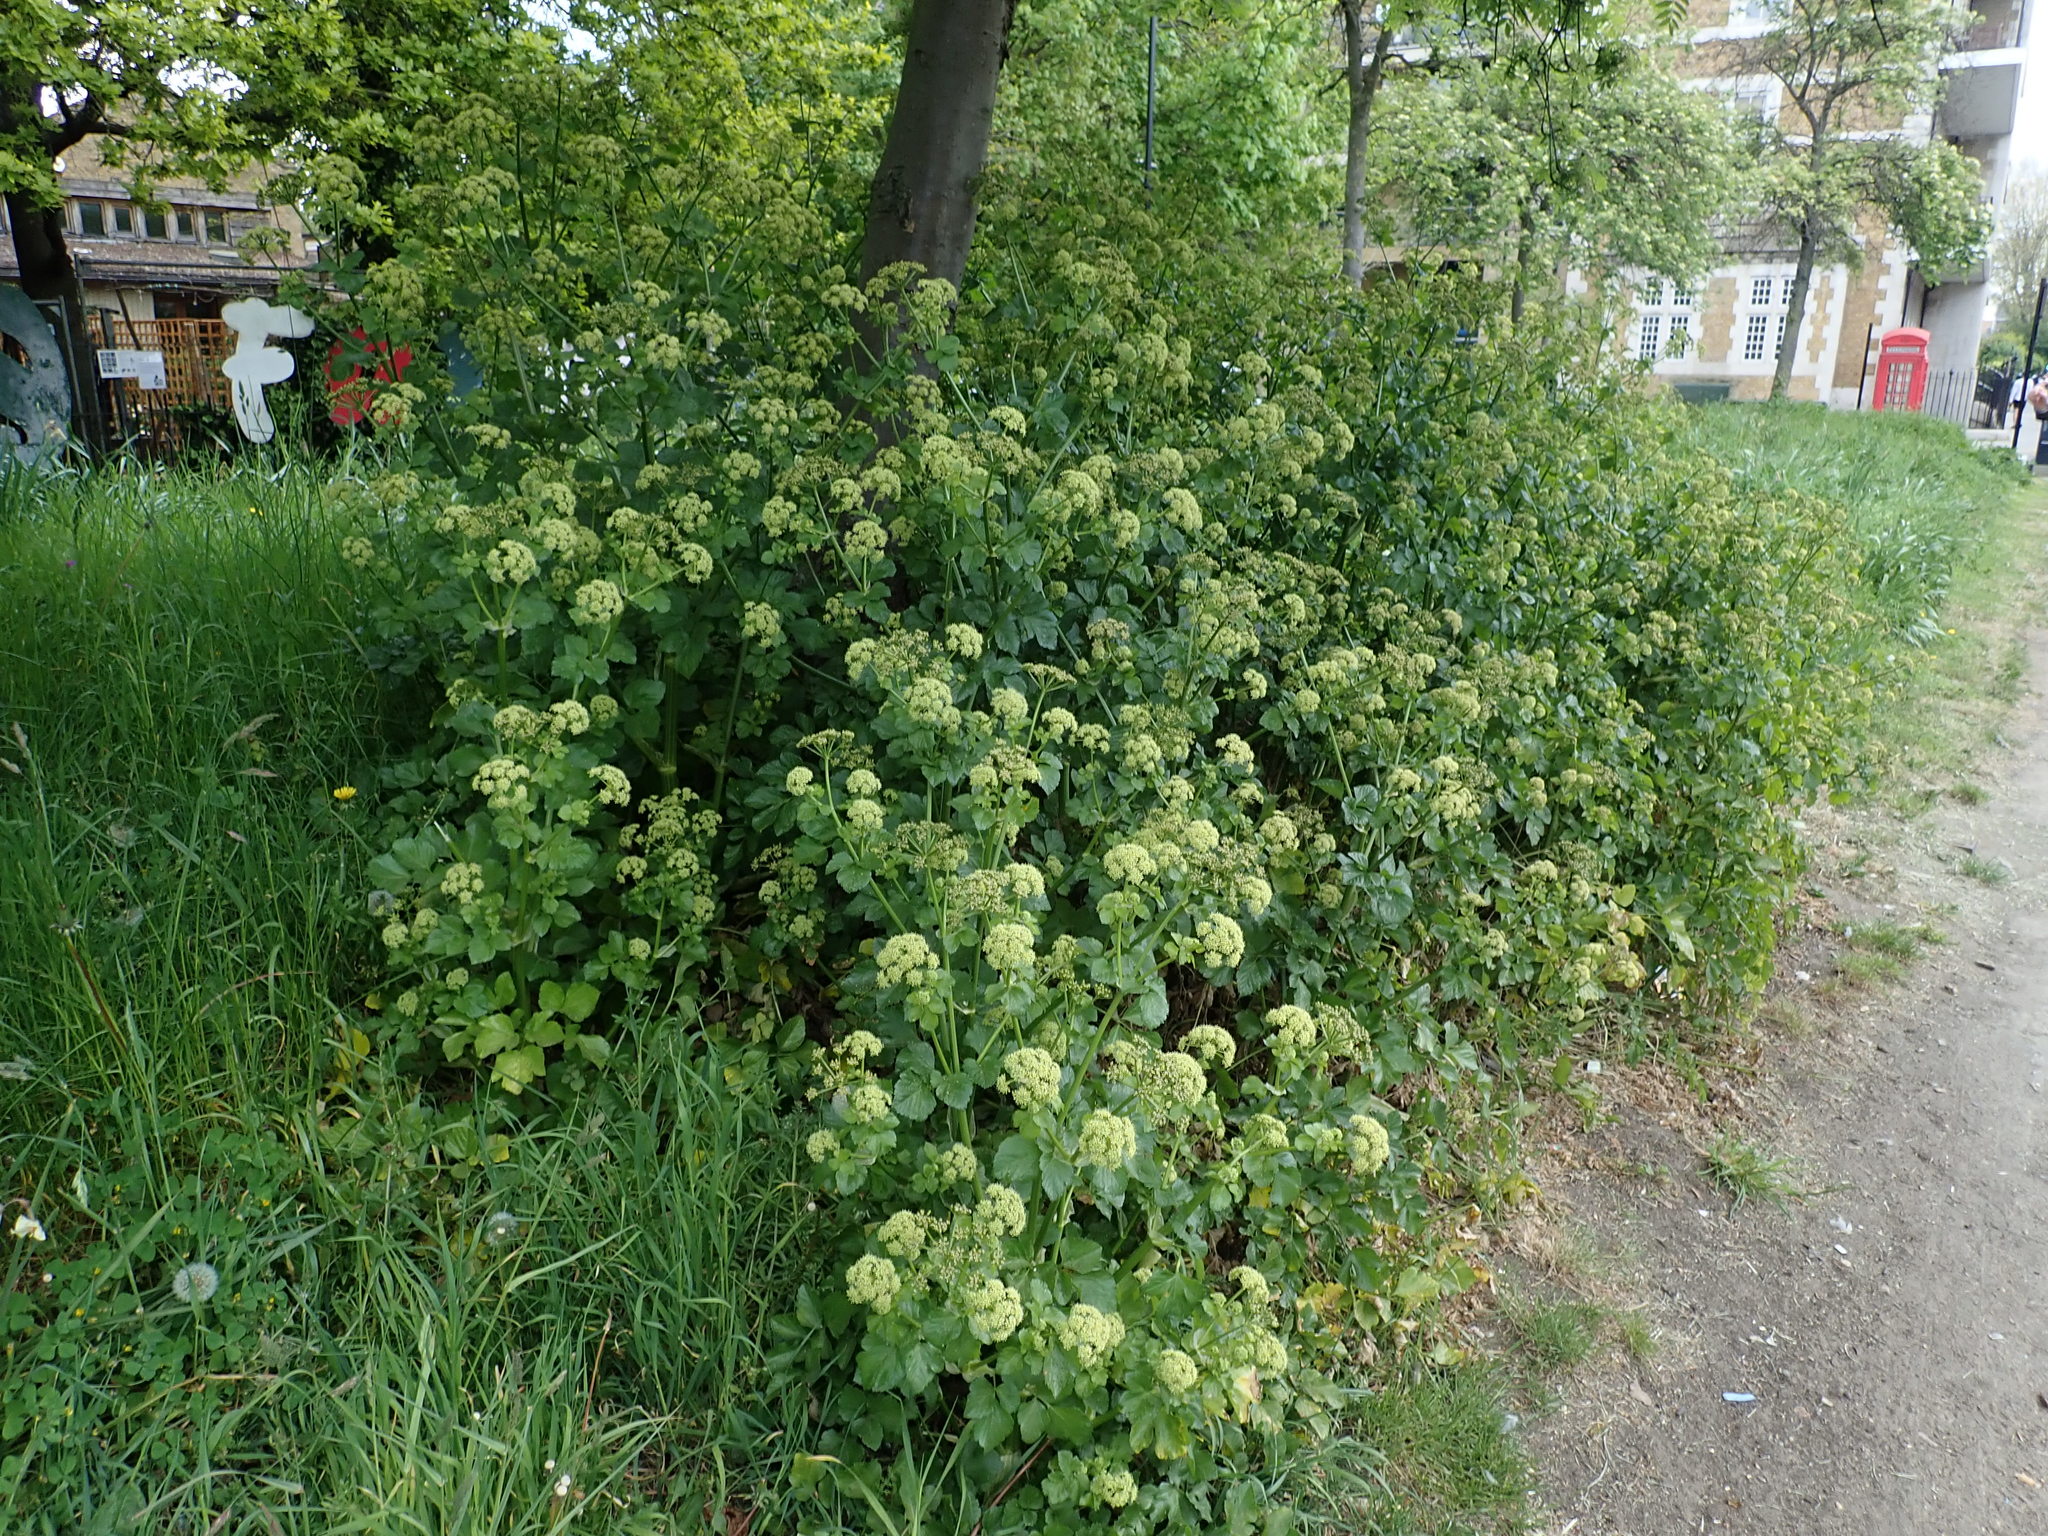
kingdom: Plantae
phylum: Tracheophyta
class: Magnoliopsida
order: Apiales
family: Apiaceae
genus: Smyrnium
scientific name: Smyrnium olusatrum
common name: Alexanders
